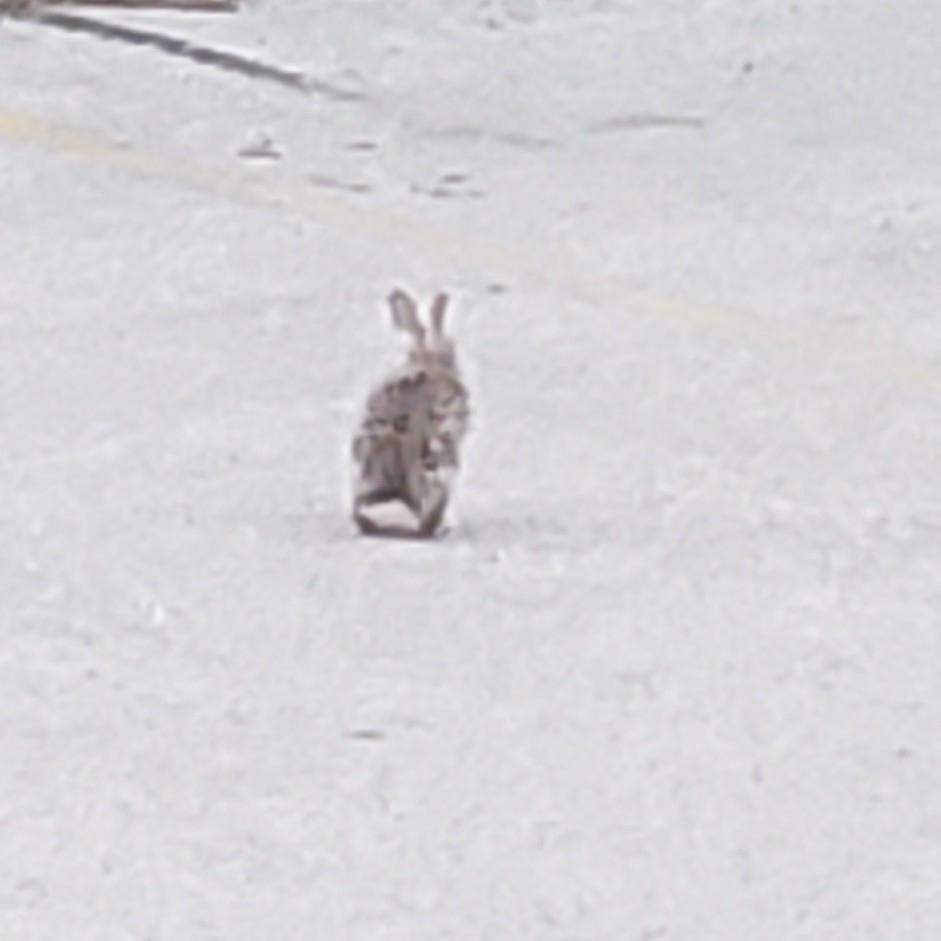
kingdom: Animalia
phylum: Chordata
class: Mammalia
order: Lagomorpha
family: Leporidae
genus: Sylvilagus
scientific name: Sylvilagus floridanus
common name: Eastern cottontail
